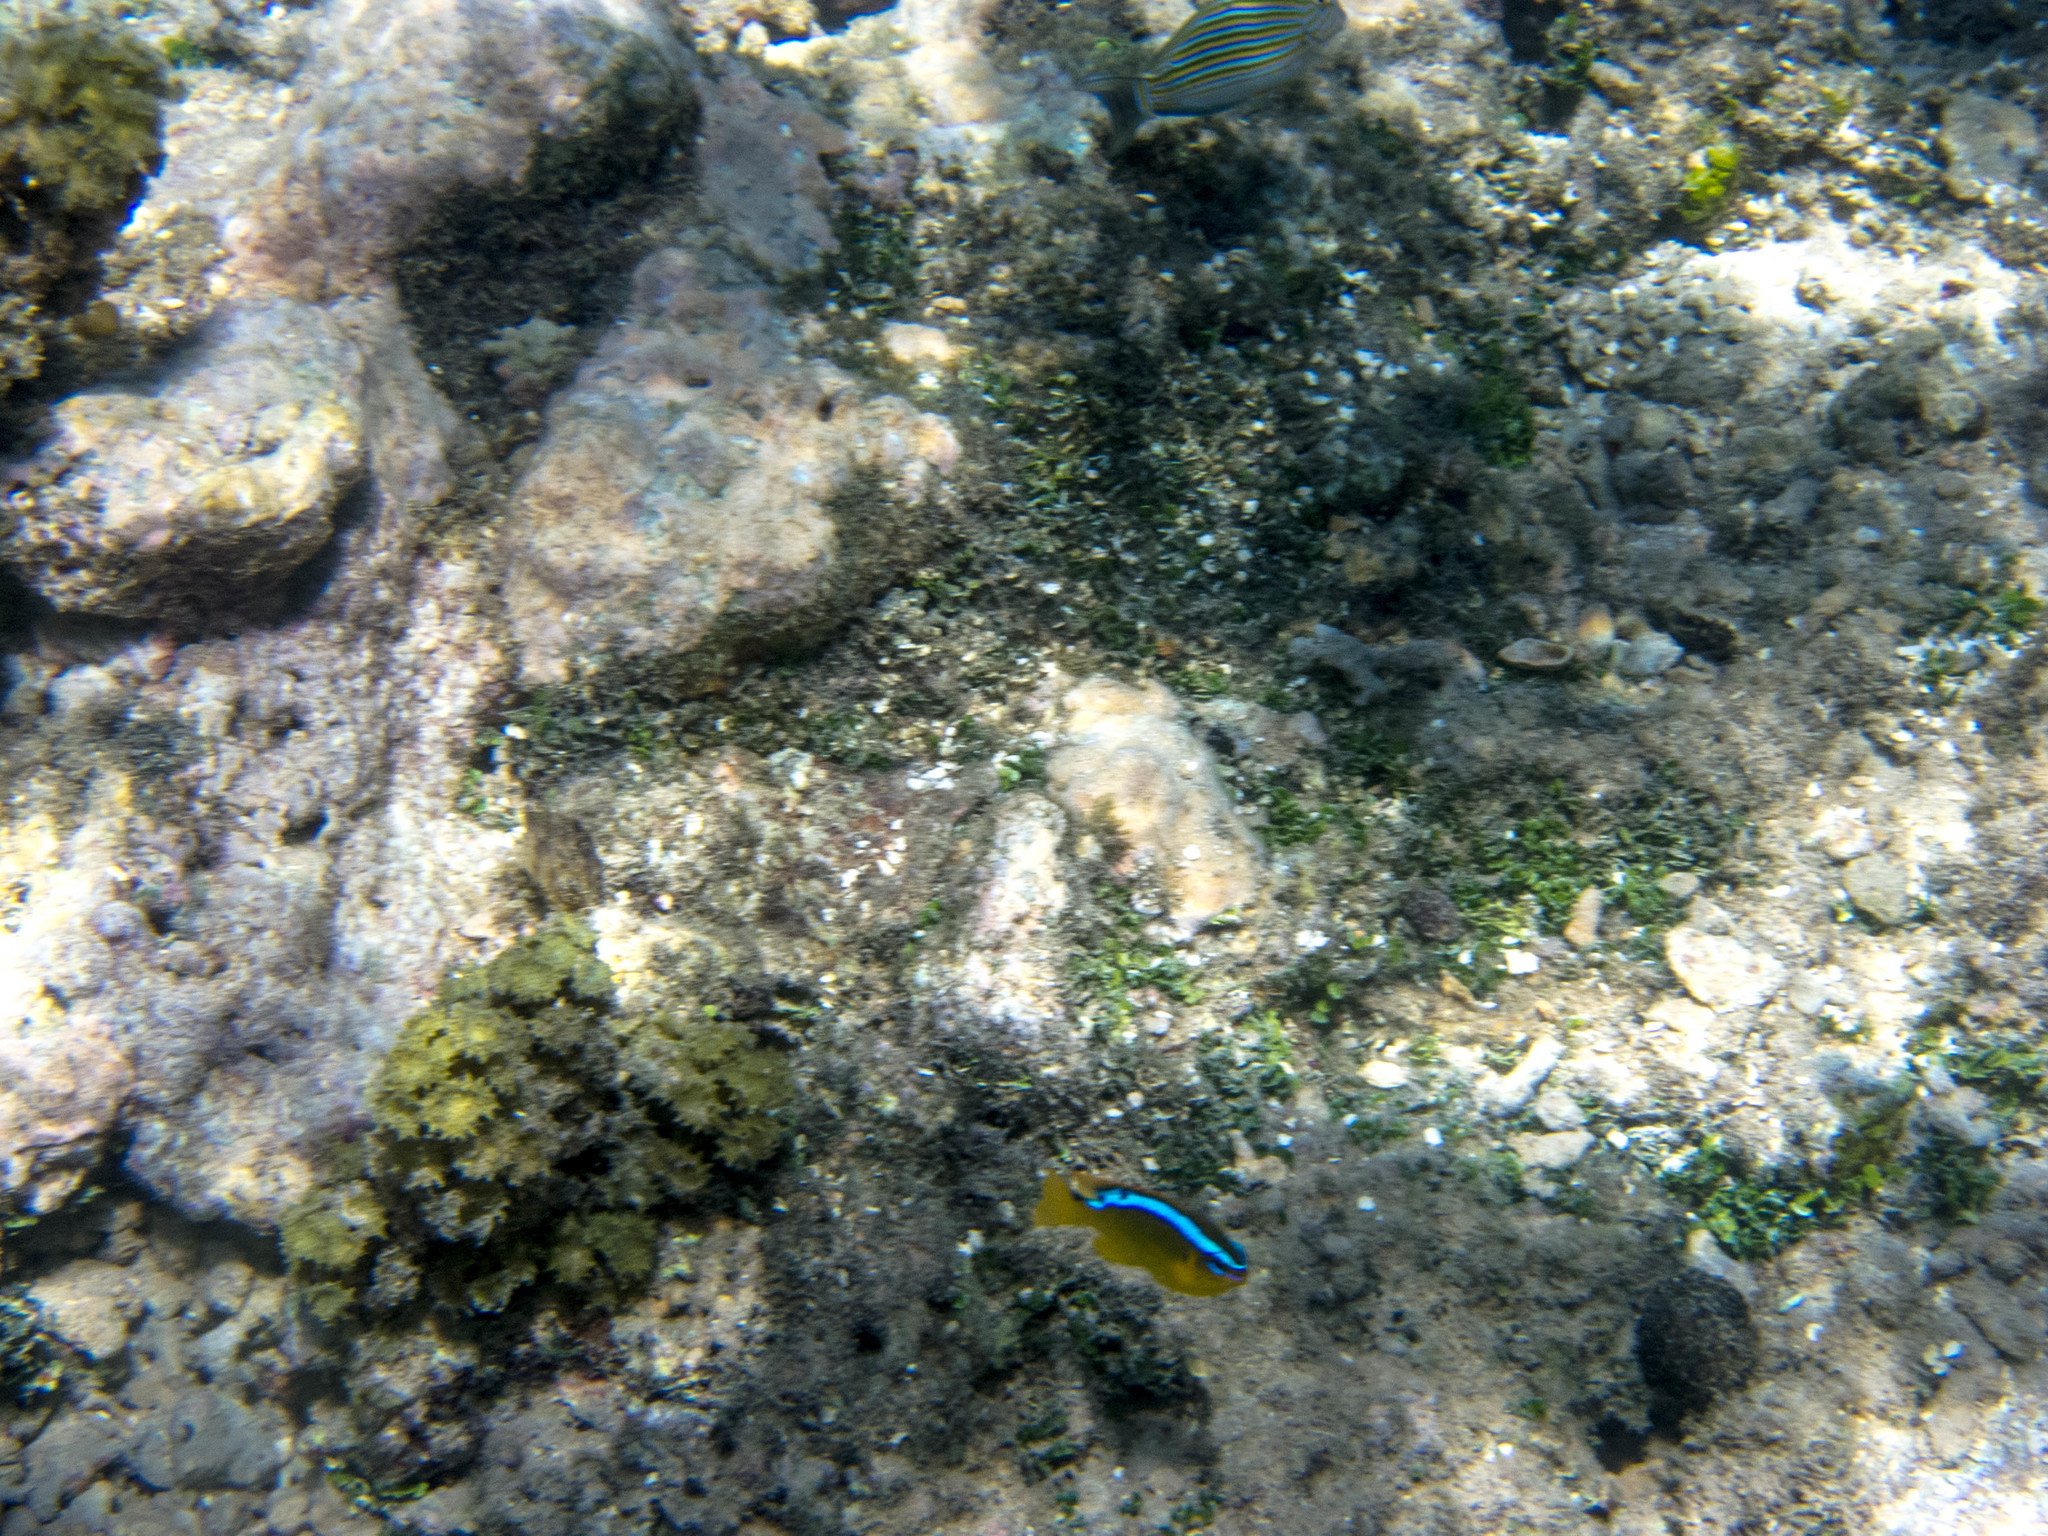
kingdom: Animalia
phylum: Chordata
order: Perciformes
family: Acanthuridae
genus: Acanthurus
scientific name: Acanthurus lineatus
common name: Striped surgeonfish
